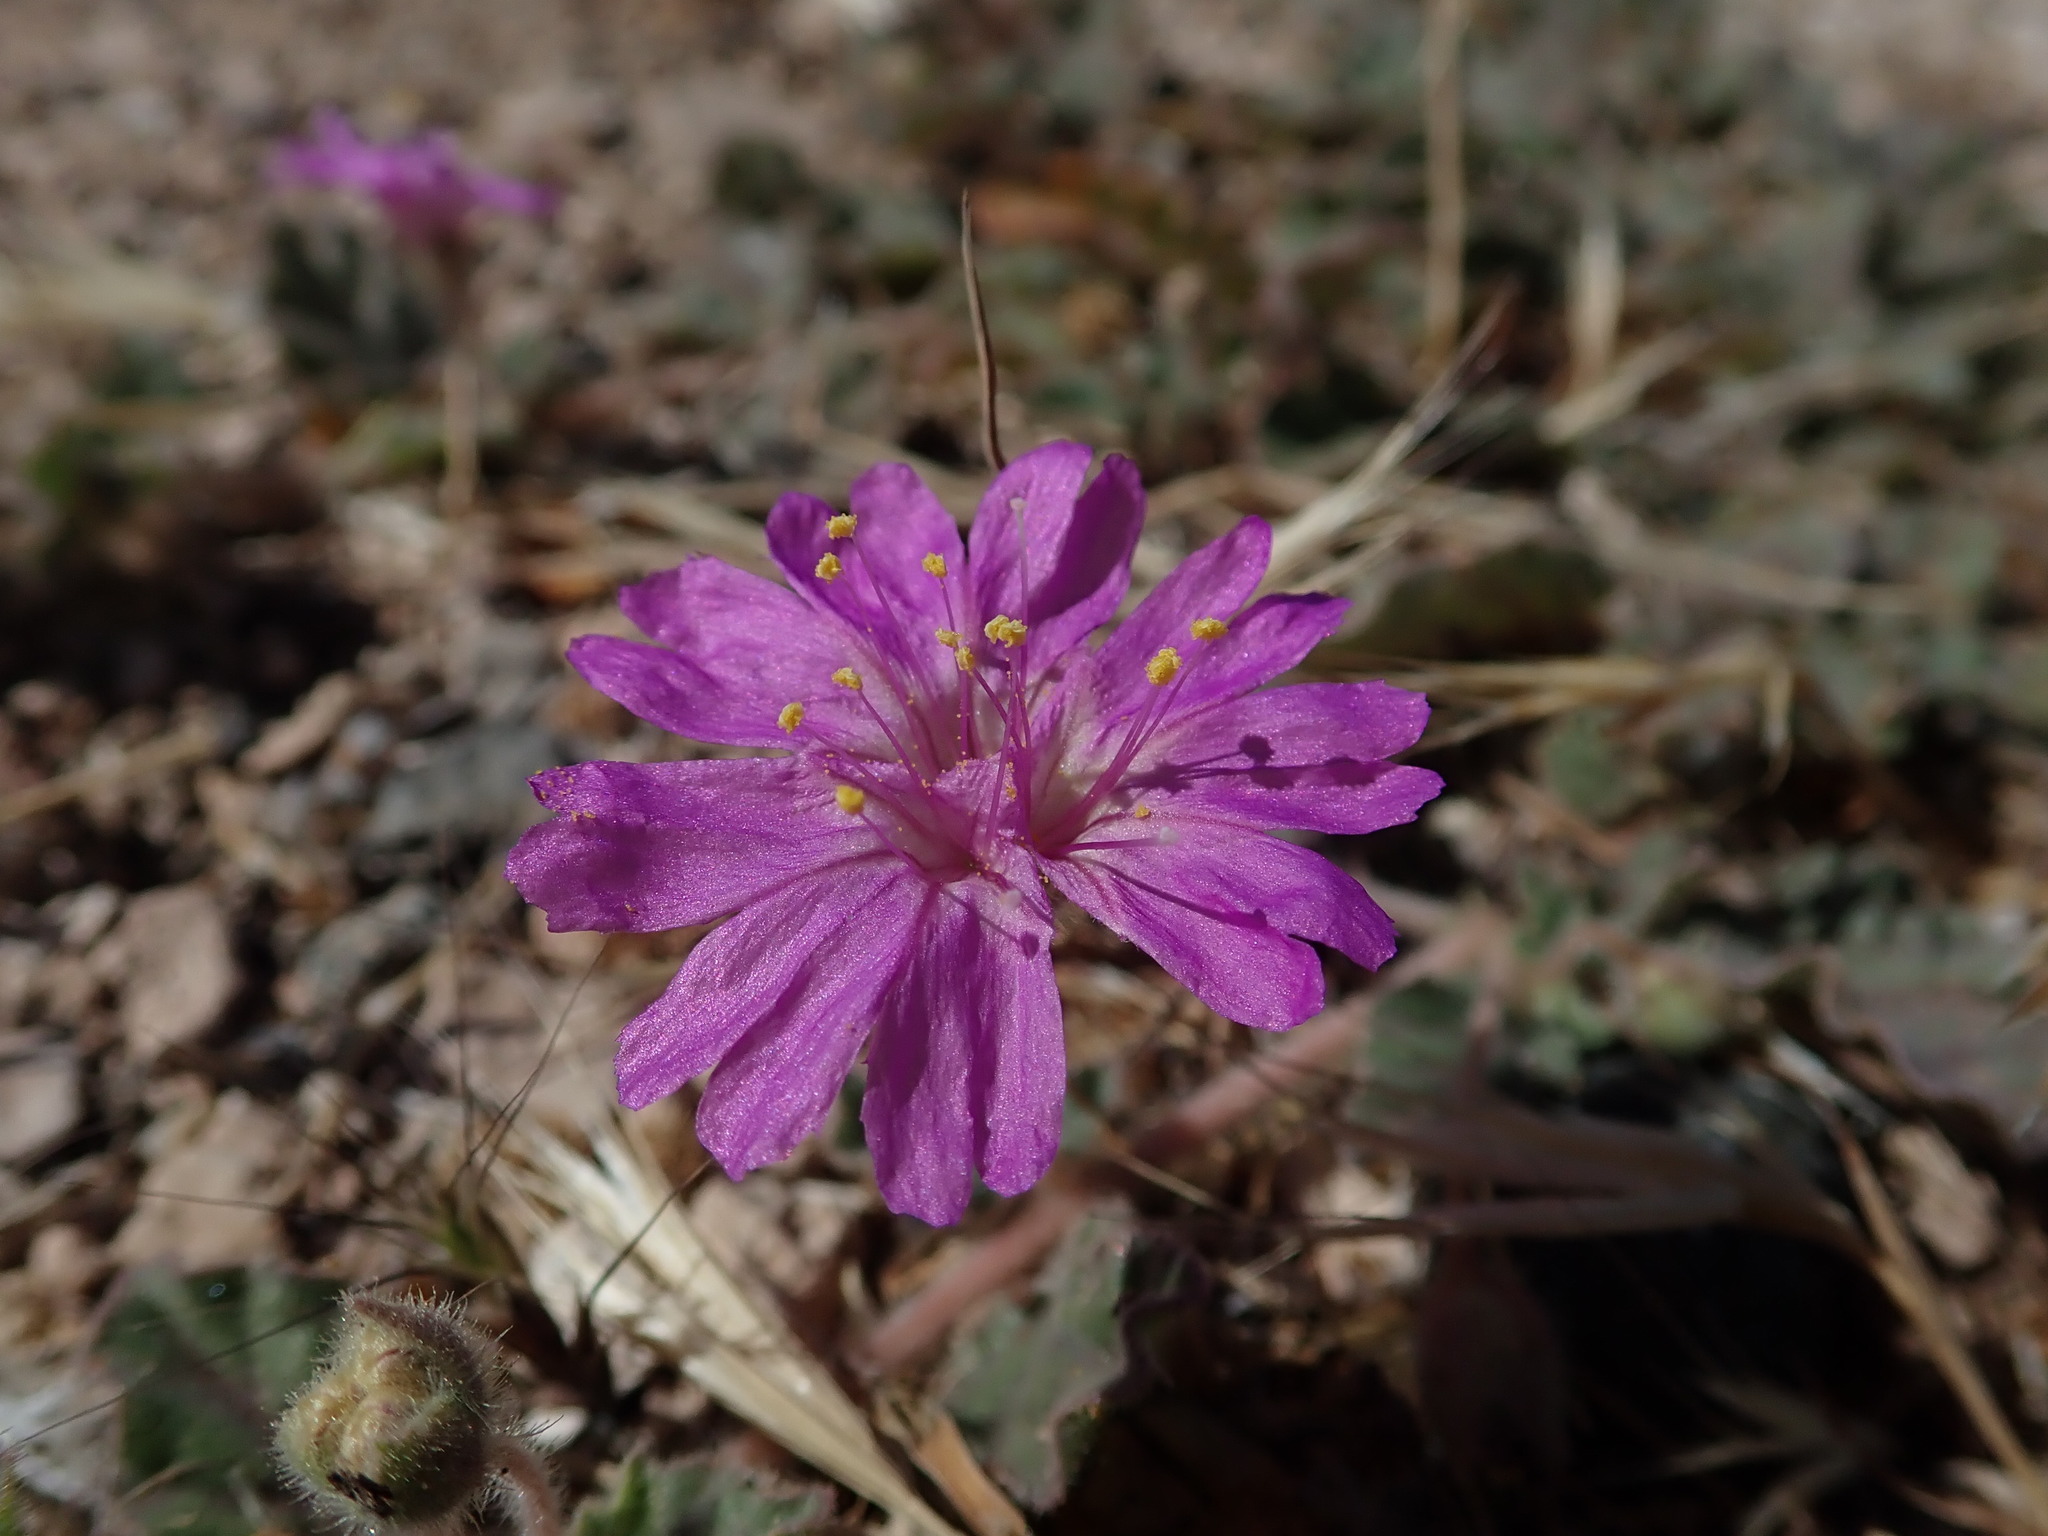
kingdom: Plantae
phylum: Tracheophyta
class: Magnoliopsida
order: Caryophyllales
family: Nyctaginaceae
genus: Allionia
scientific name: Allionia incarnata
